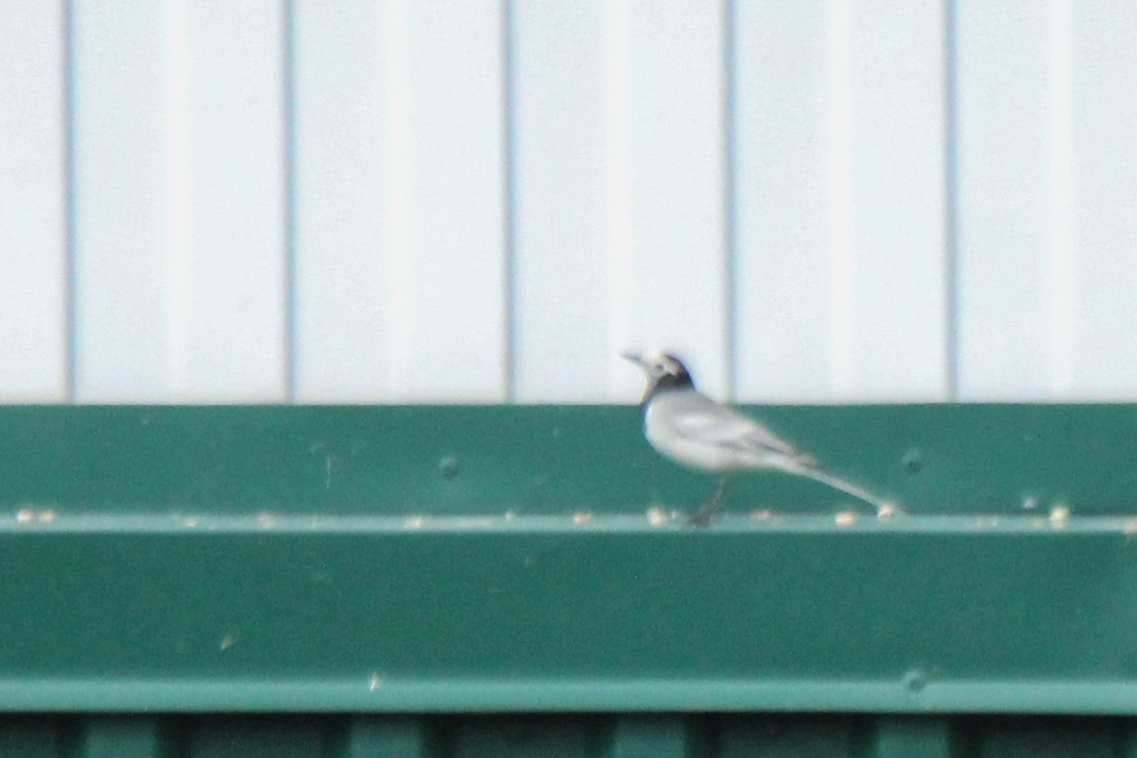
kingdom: Animalia
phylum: Chordata
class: Aves
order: Passeriformes
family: Motacillidae
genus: Motacilla
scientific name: Motacilla alba
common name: White wagtail
